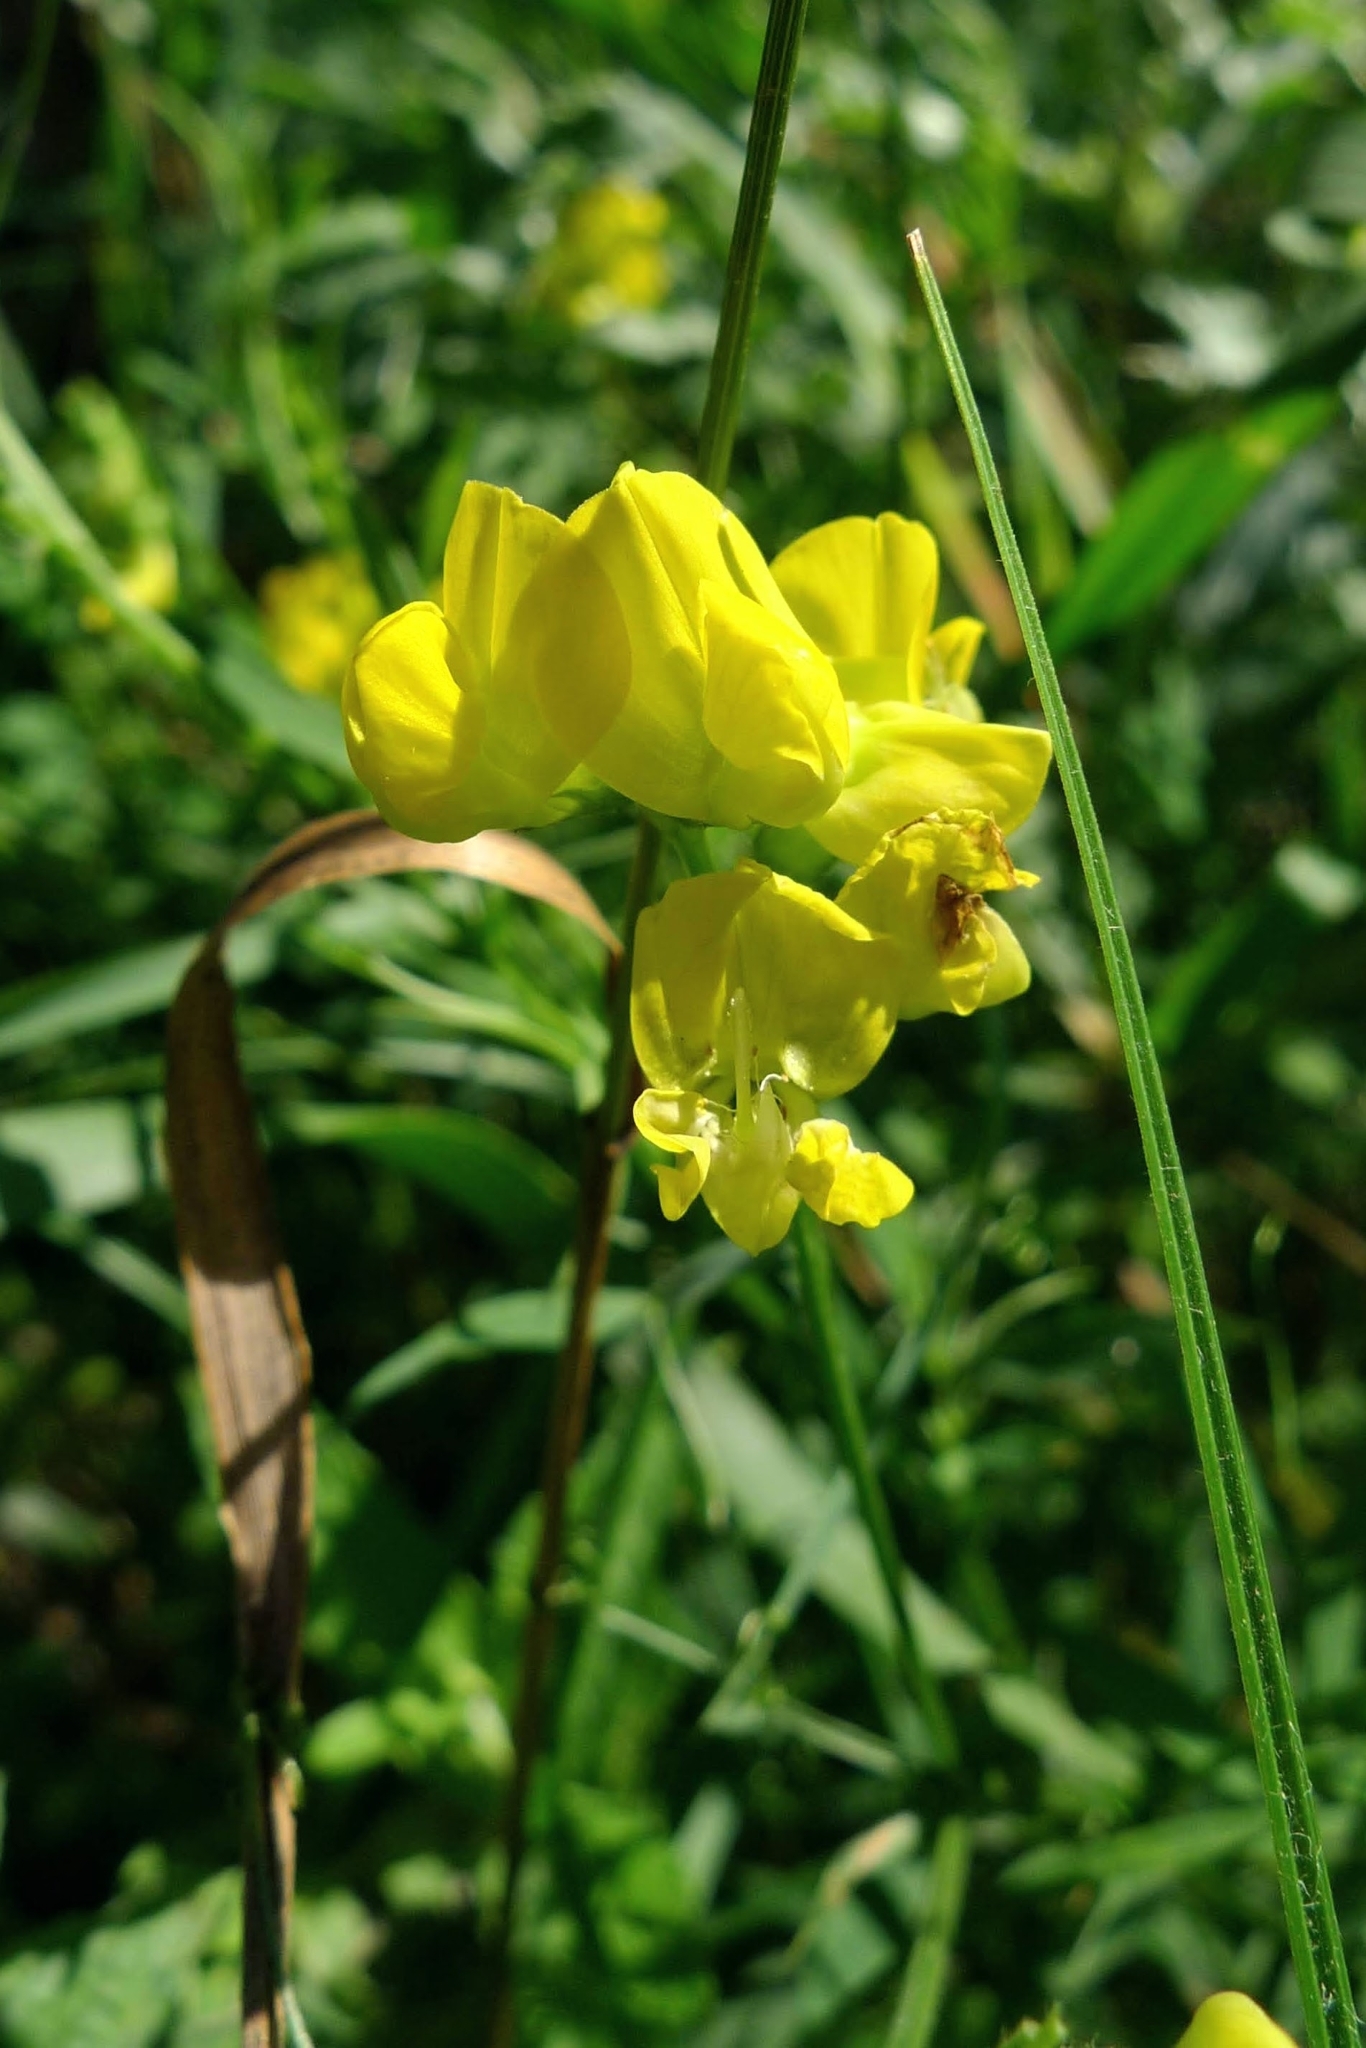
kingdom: Plantae
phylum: Tracheophyta
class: Magnoliopsida
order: Fabales
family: Fabaceae
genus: Lathyrus
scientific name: Lathyrus pratensis
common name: Meadow vetchling
